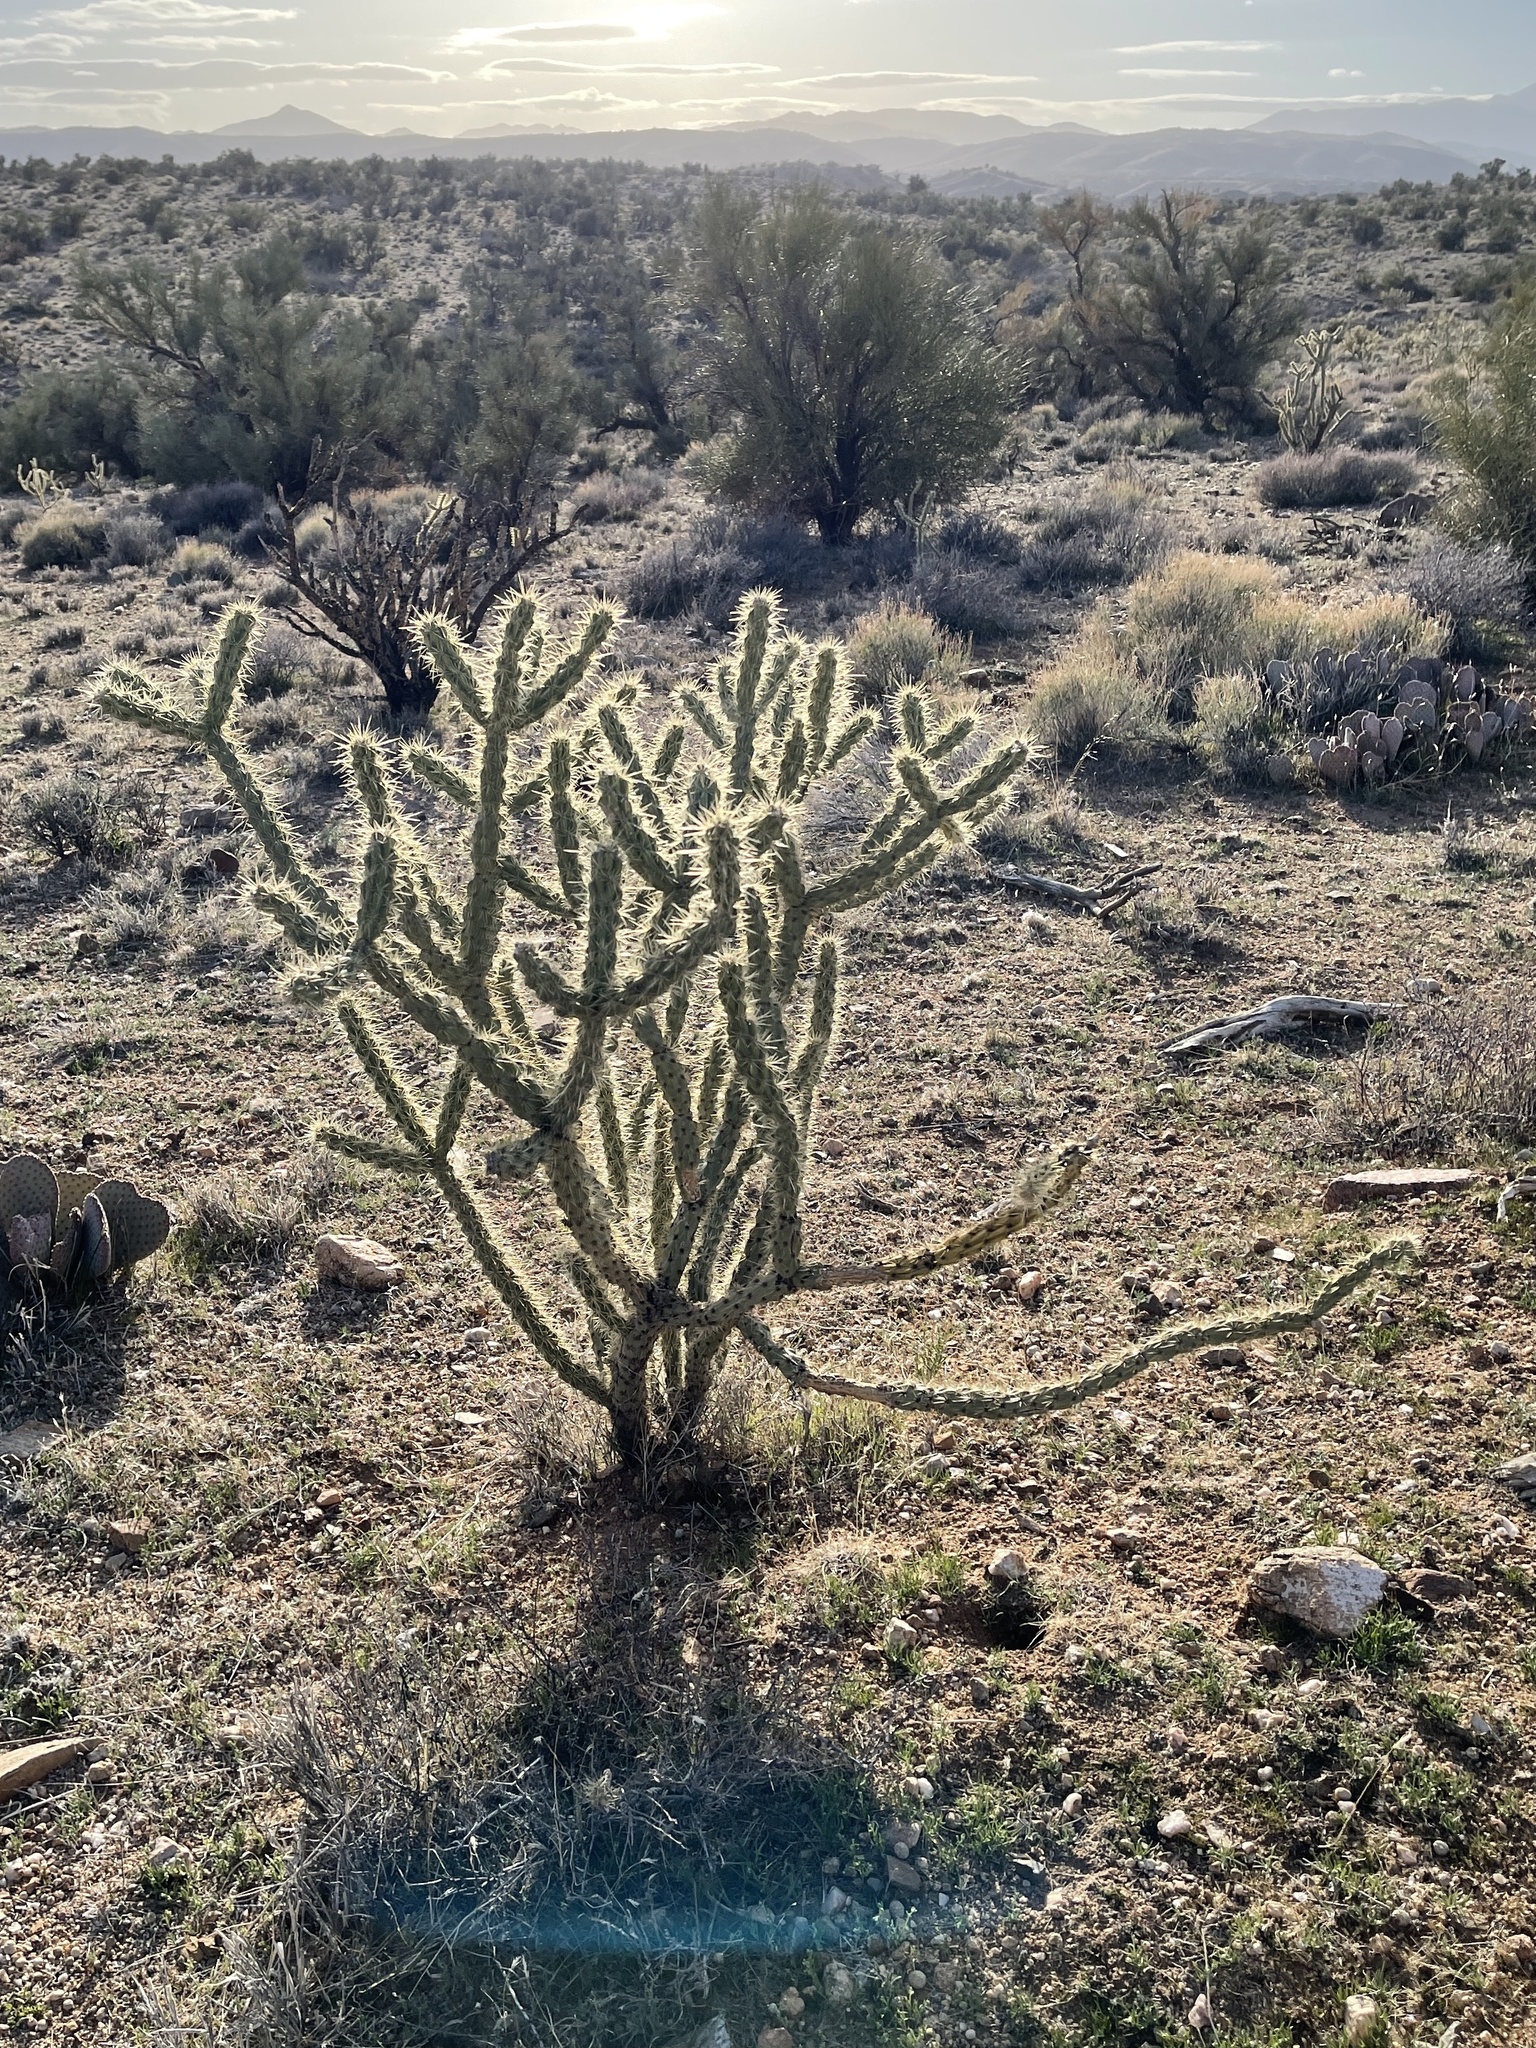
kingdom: Plantae
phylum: Tracheophyta
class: Magnoliopsida
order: Caryophyllales
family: Cactaceae
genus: Cylindropuntia
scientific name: Cylindropuntia acanthocarpa
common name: Buckhorn cholla
